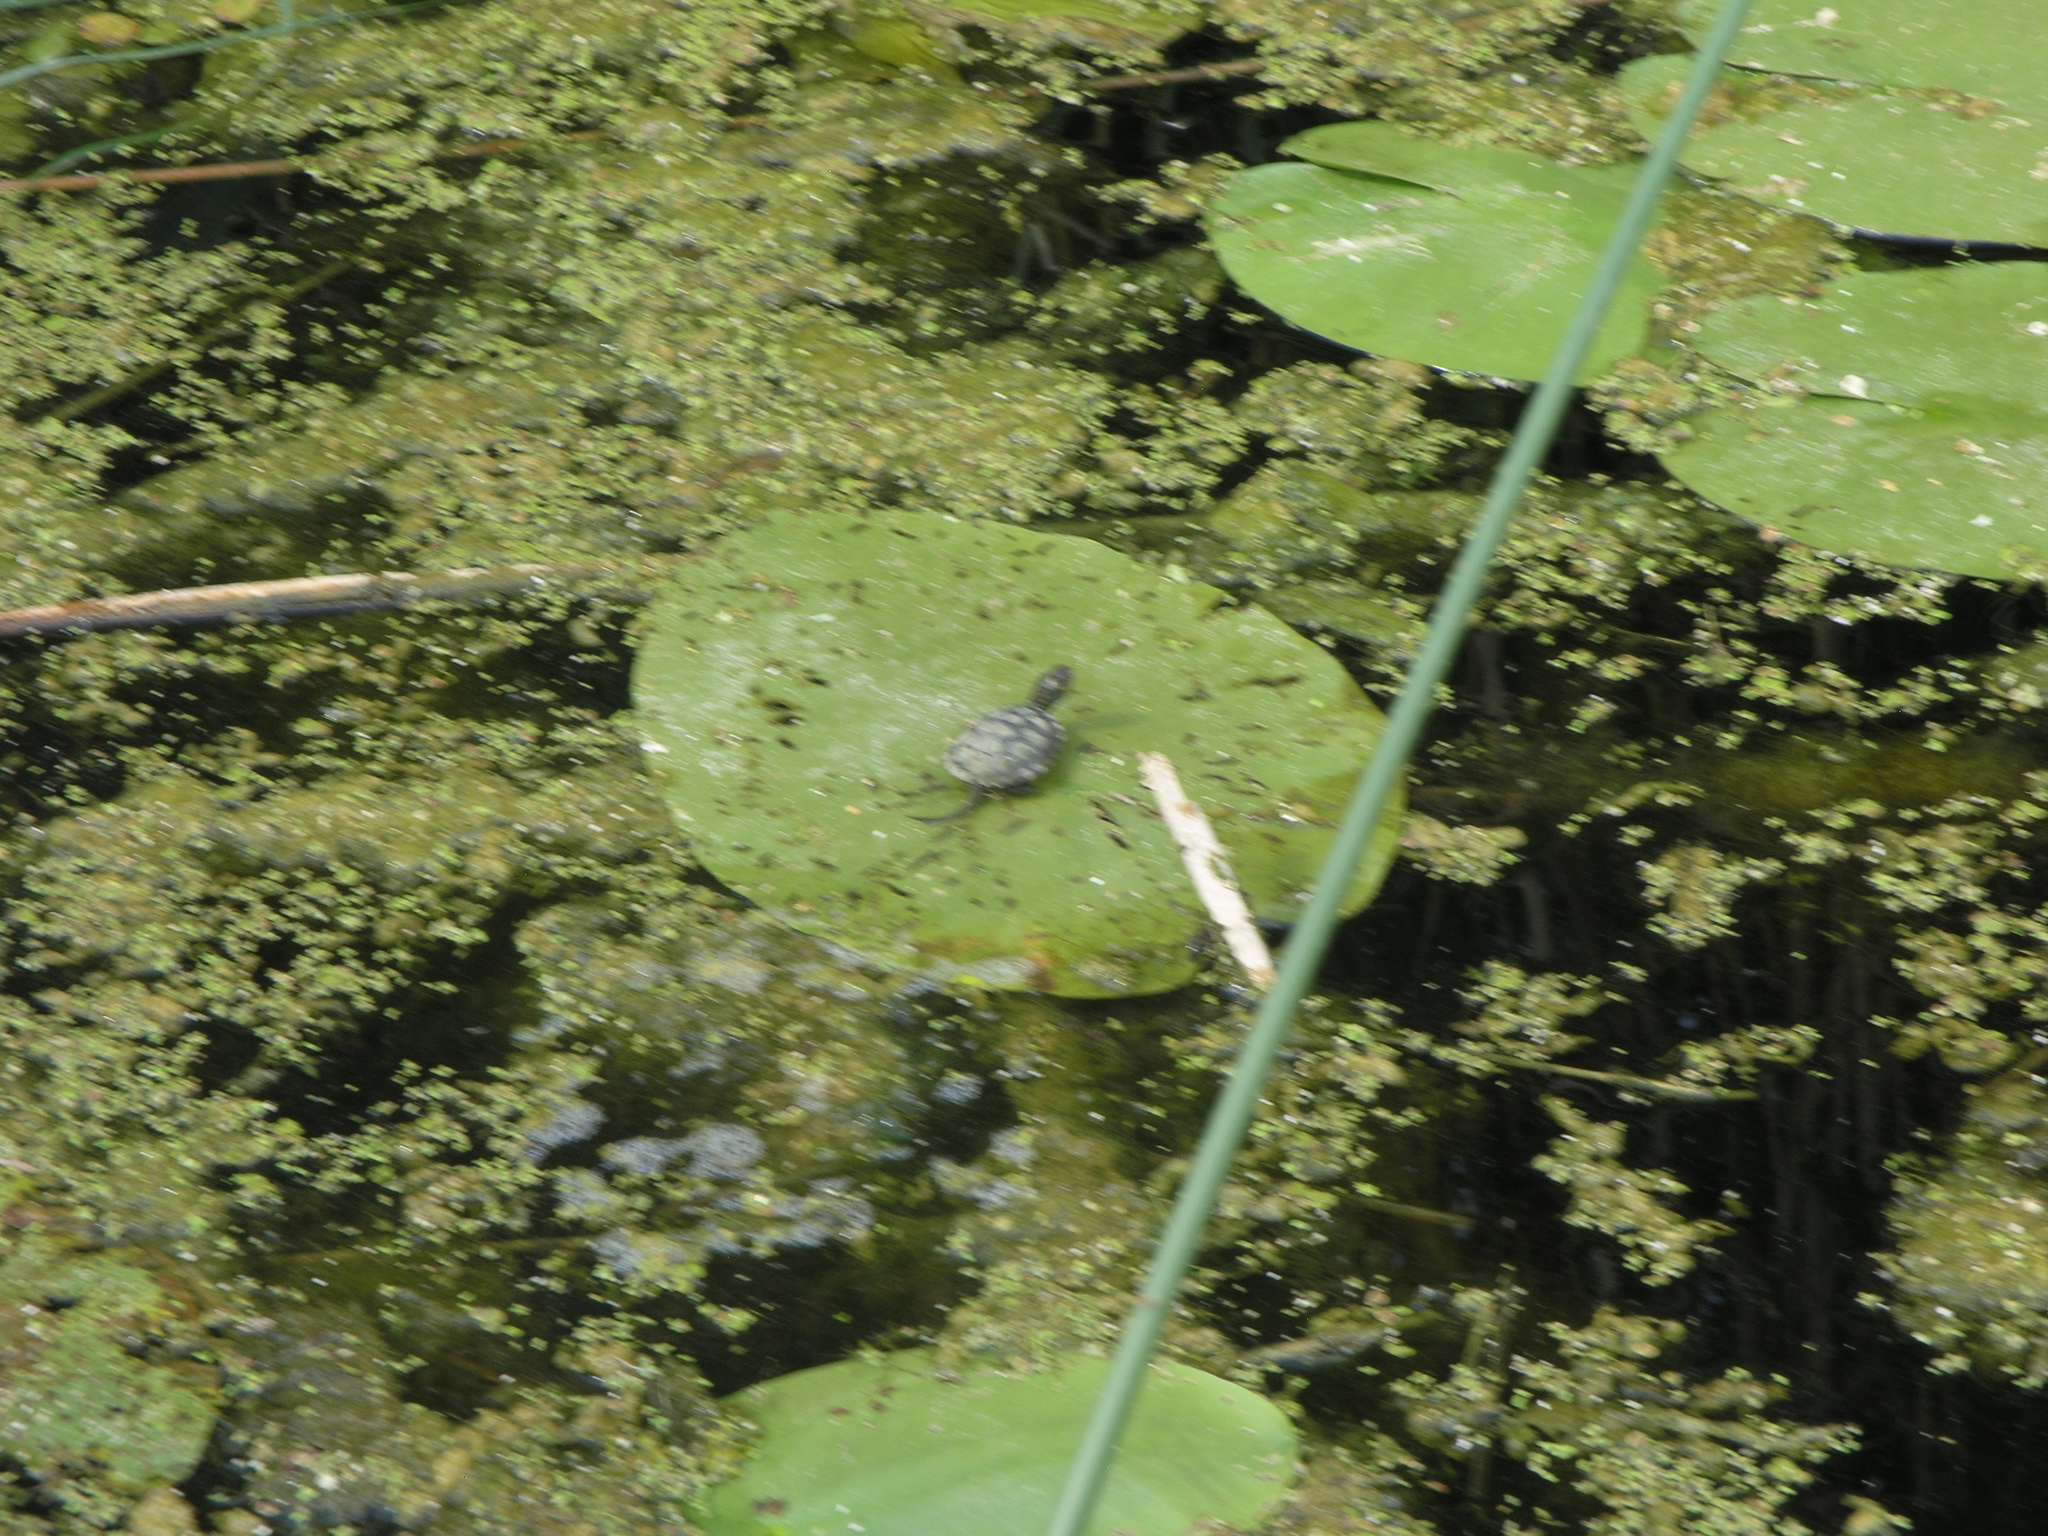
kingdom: Animalia
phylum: Chordata
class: Testudines
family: Emydidae
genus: Emys
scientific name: Emys orbicularis
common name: European pond turtle
